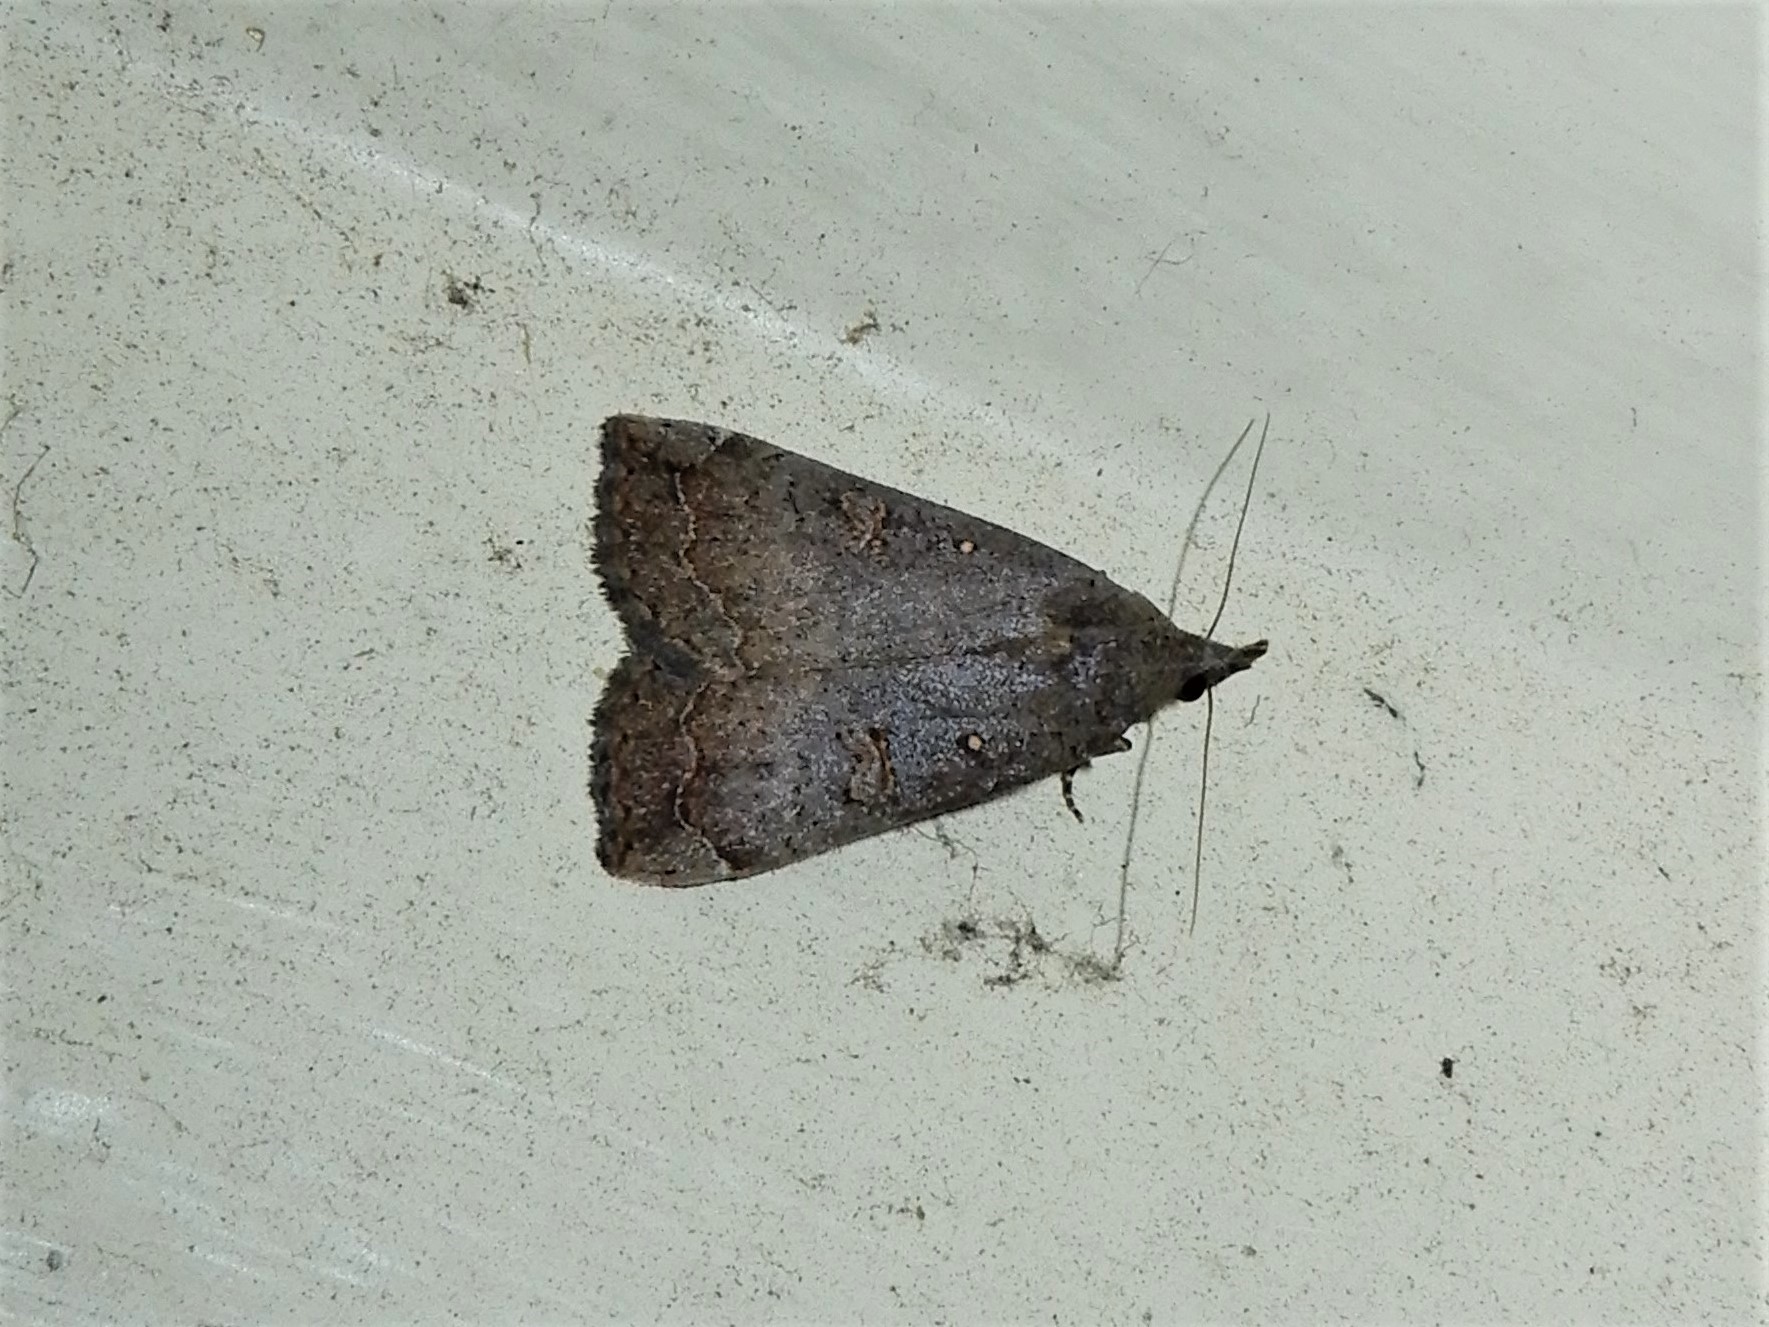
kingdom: Animalia
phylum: Arthropoda
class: Insecta
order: Lepidoptera
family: Erebidae
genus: Rhapsa
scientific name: Rhapsa scotosialis
